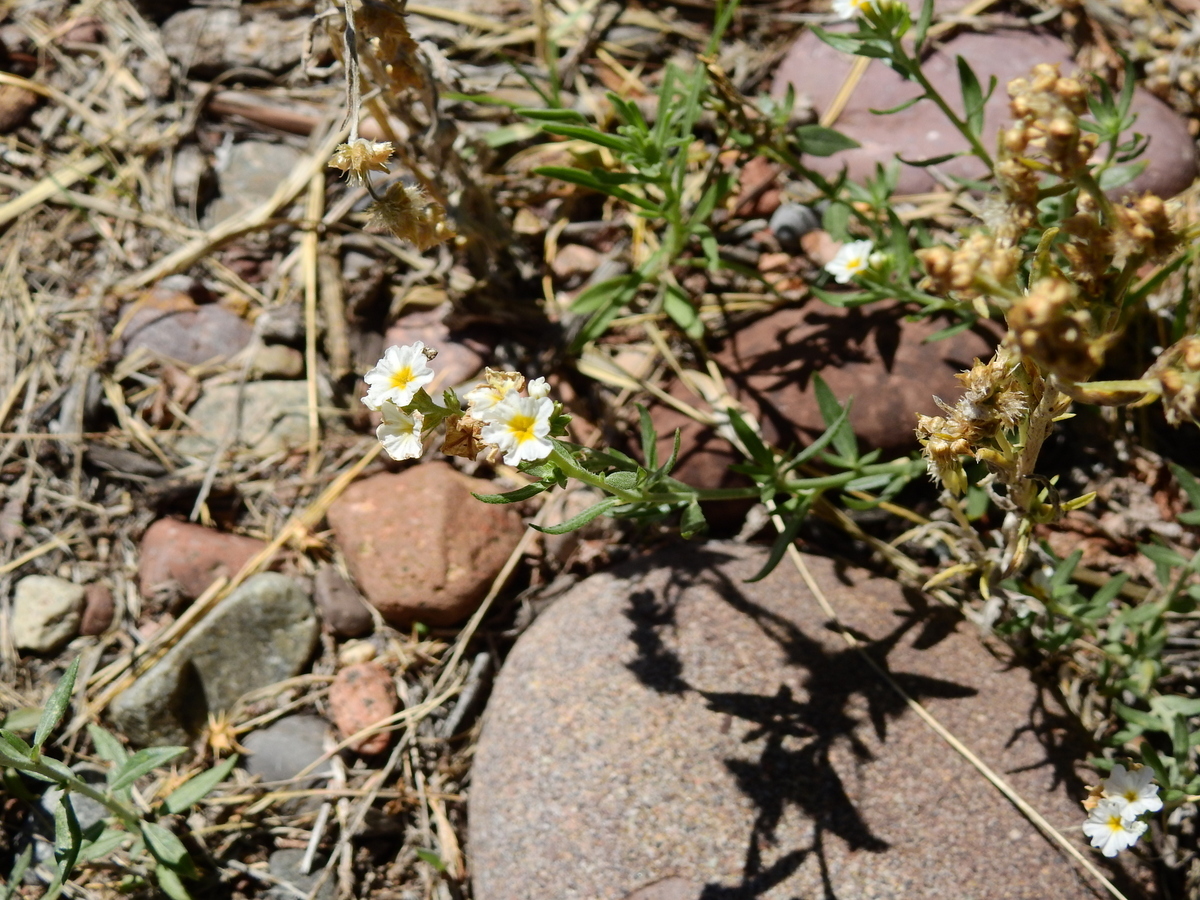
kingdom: Plantae
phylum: Tracheophyta
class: Magnoliopsida
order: Boraginales
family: Heliotropiaceae
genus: Euploca
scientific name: Euploca mendocina
